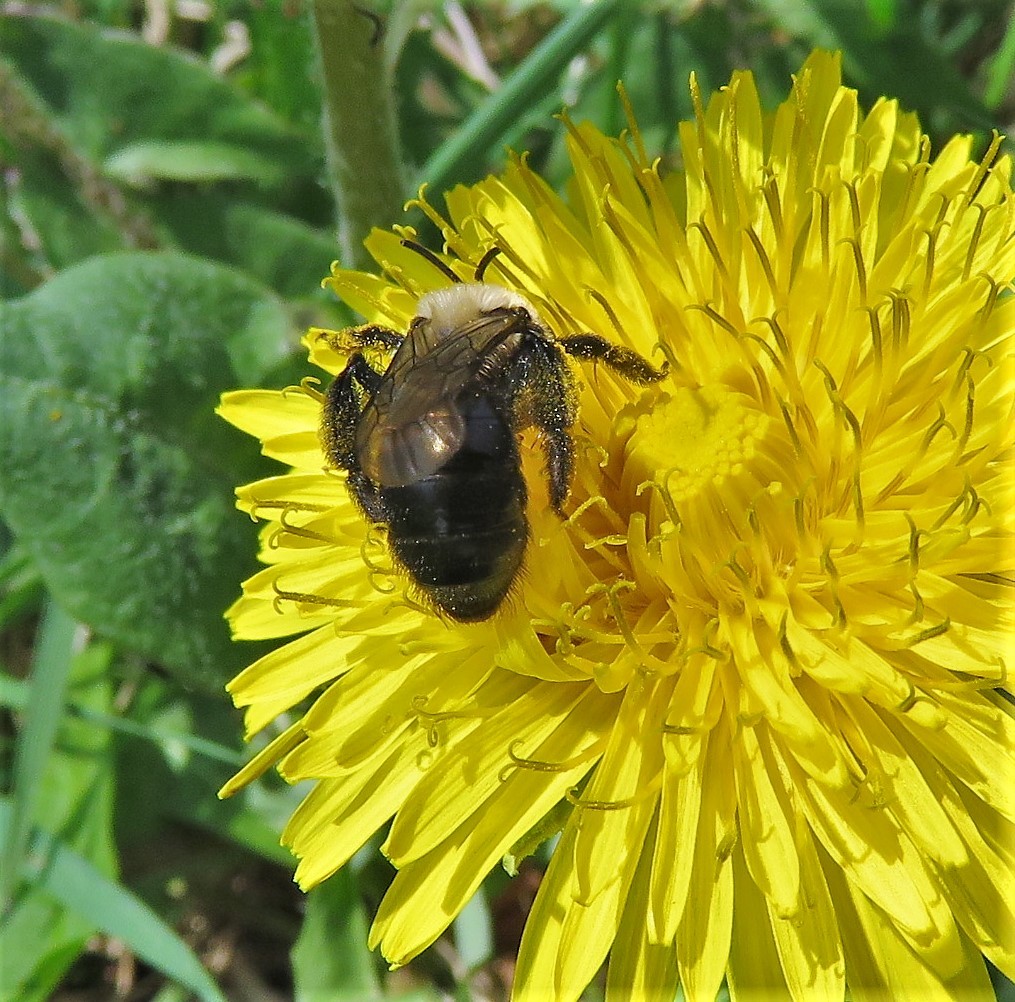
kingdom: Animalia
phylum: Arthropoda
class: Insecta
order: Hymenoptera
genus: Melandrena
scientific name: Melandrena
